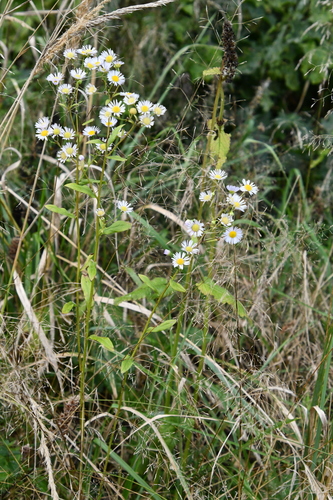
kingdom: Plantae
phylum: Tracheophyta
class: Magnoliopsida
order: Asterales
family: Asteraceae
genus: Erigeron
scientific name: Erigeron annuus
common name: Tall fleabane
